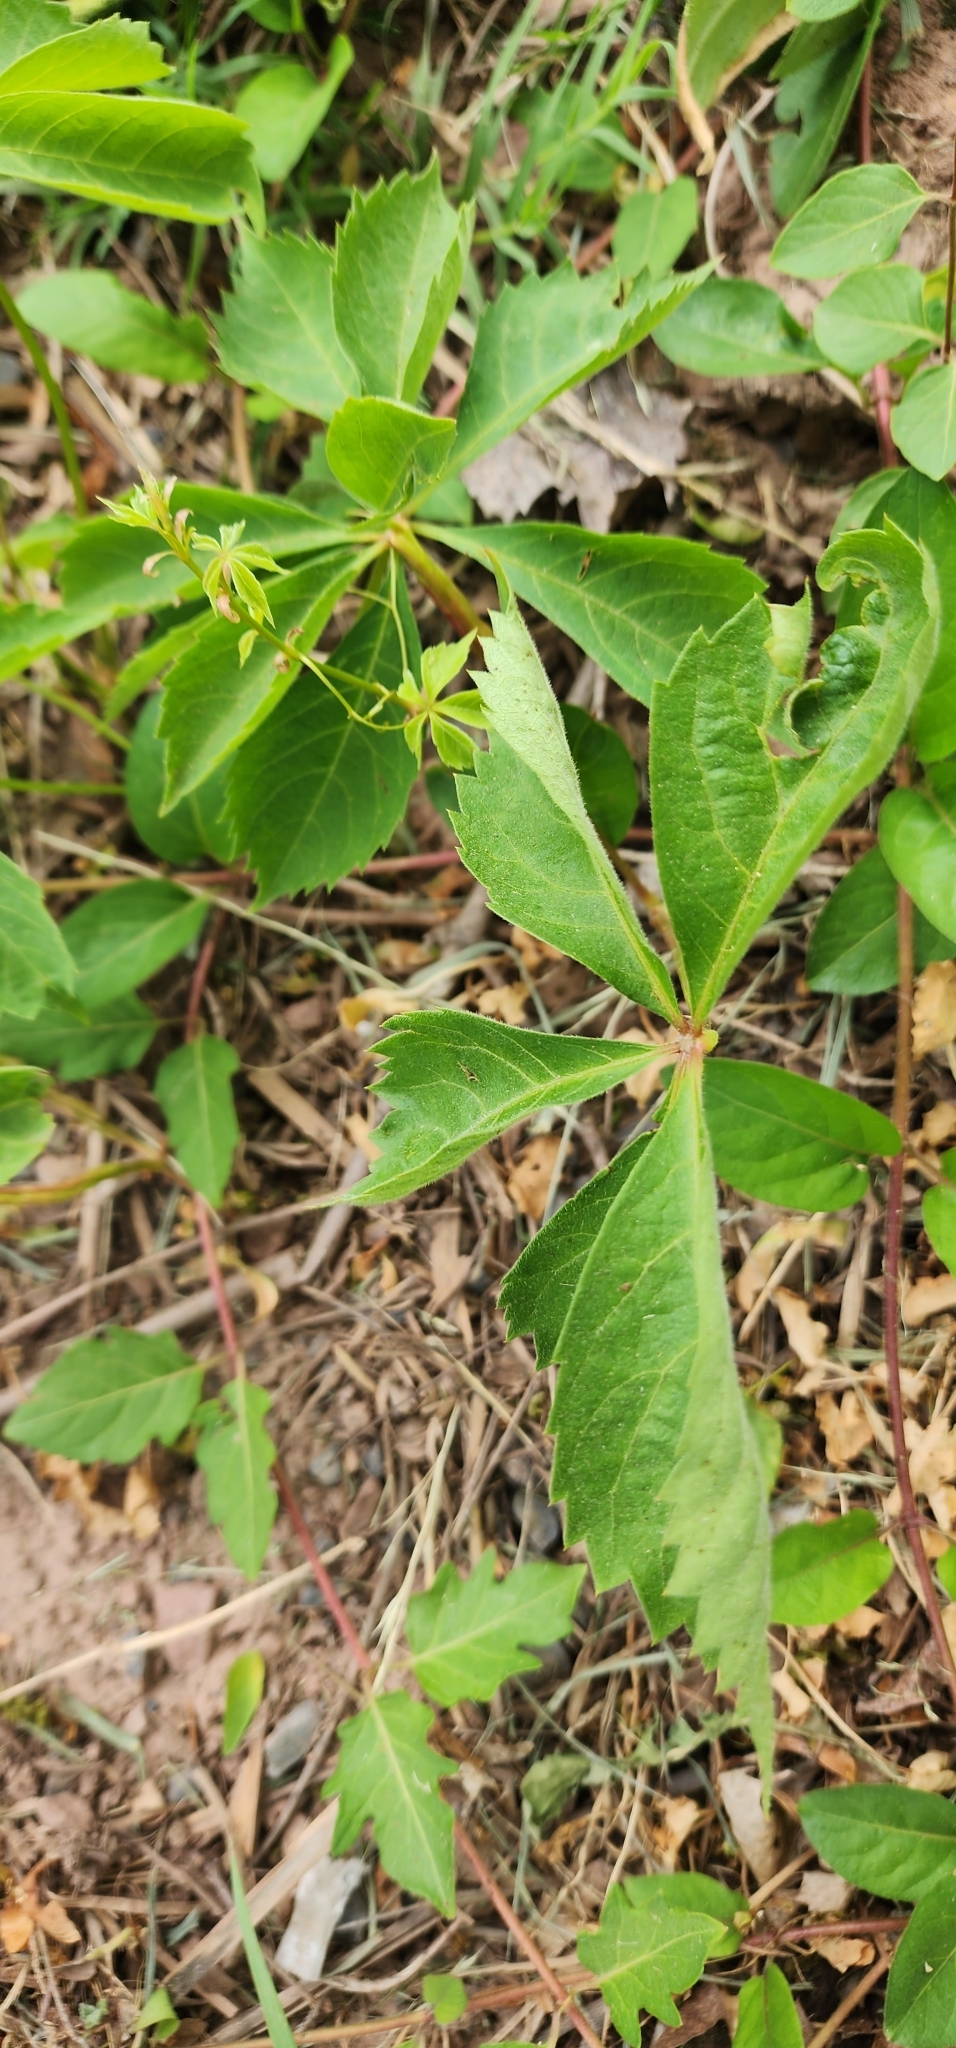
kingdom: Plantae
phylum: Tracheophyta
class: Magnoliopsida
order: Vitales
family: Vitaceae
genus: Parthenocissus
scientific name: Parthenocissus quinquefolia
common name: Virginia-creeper
